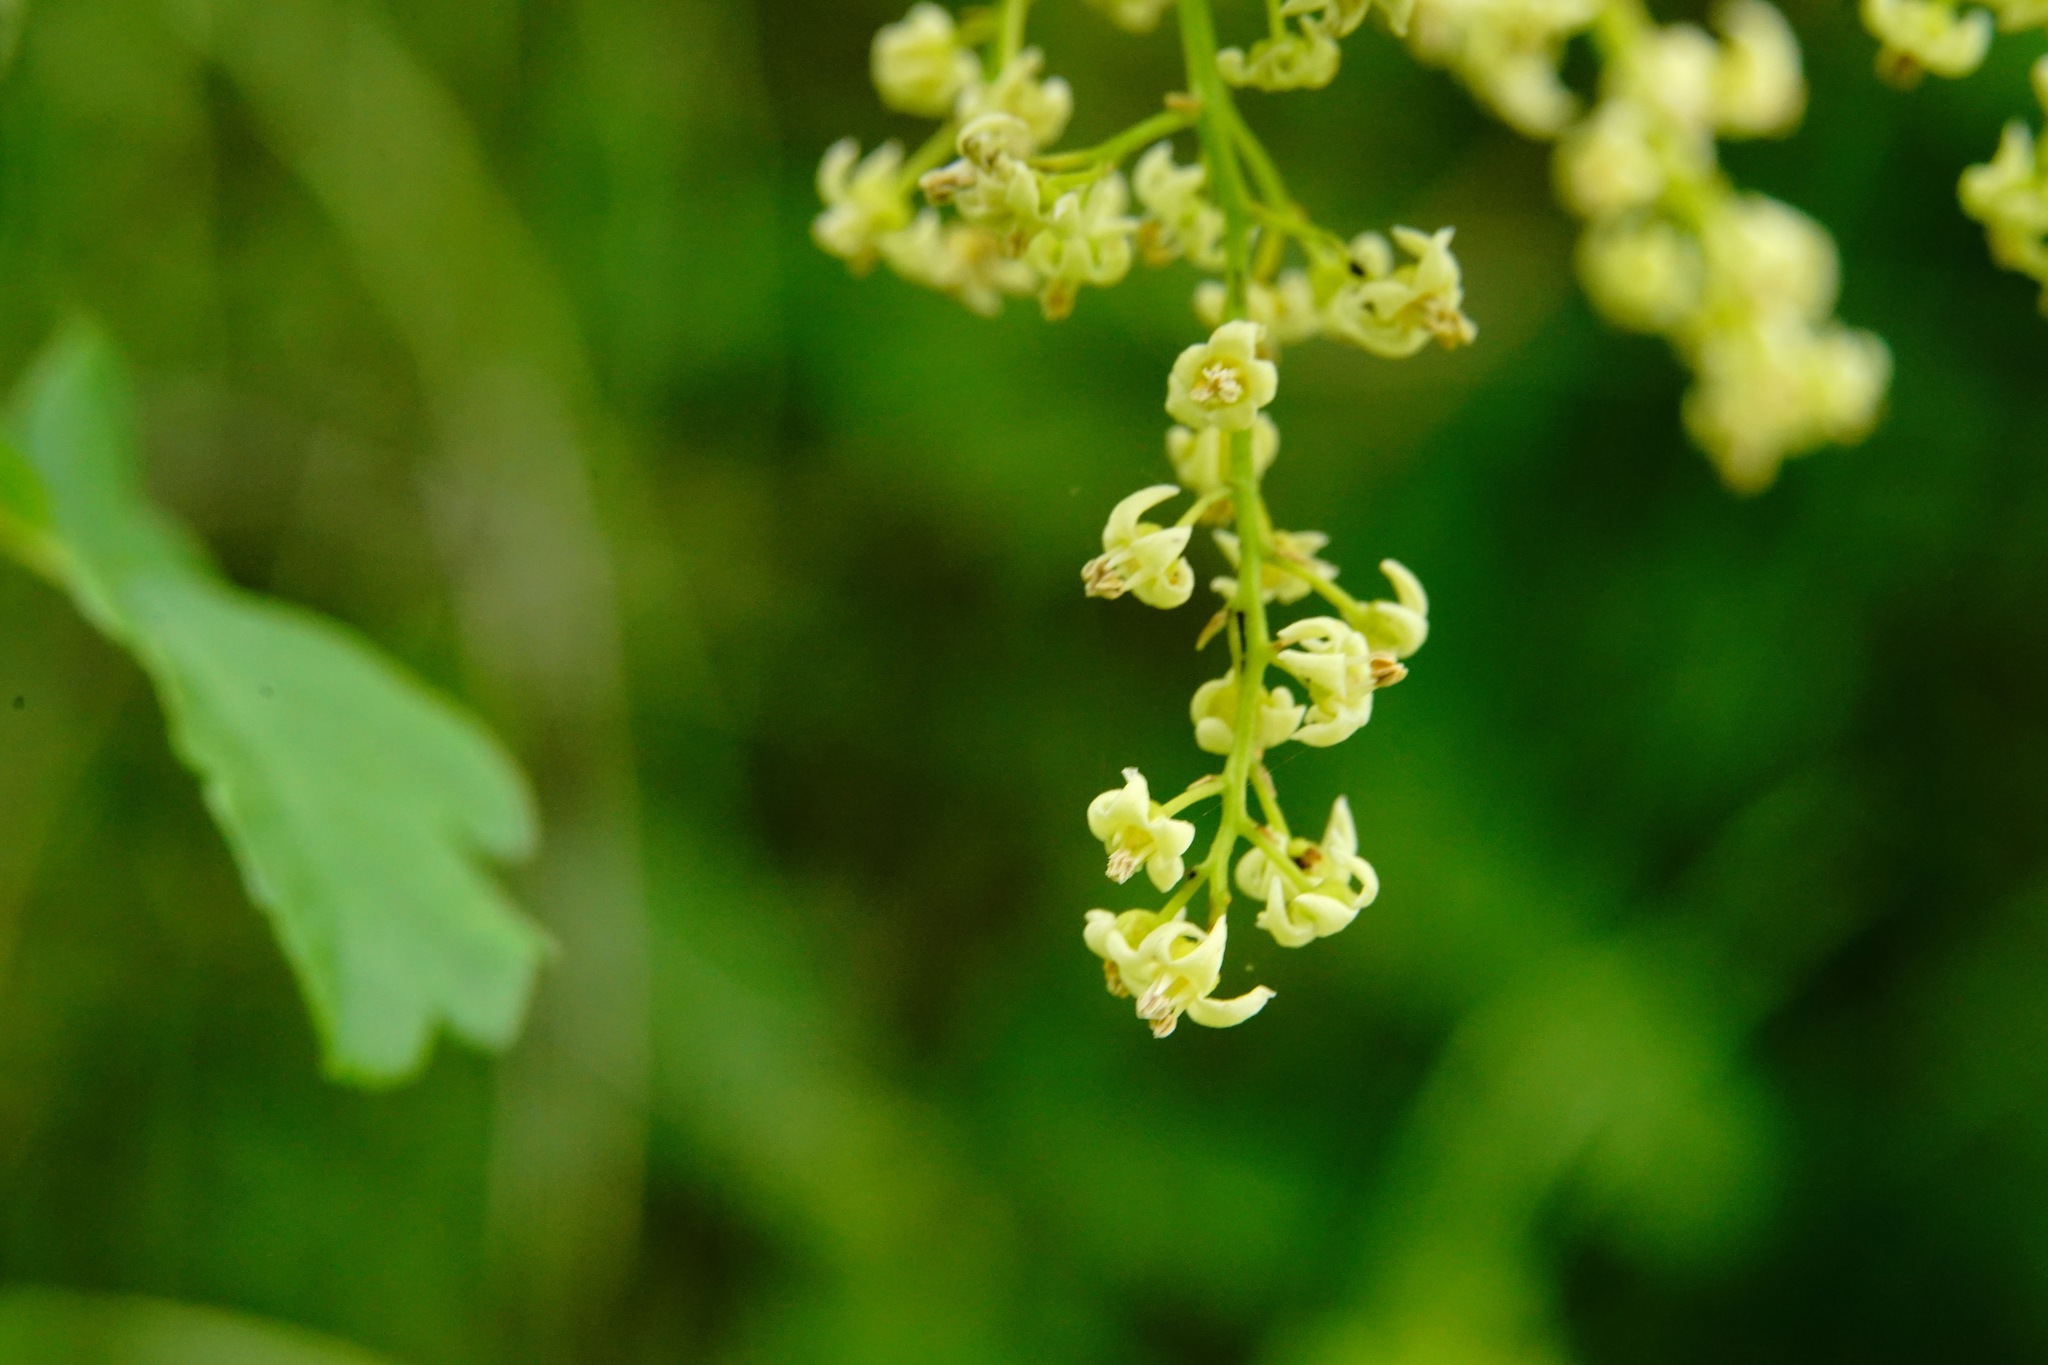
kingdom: Plantae
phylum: Tracheophyta
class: Magnoliopsida
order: Sapindales
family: Anacardiaceae
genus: Toxicodendron
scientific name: Toxicodendron diversilobum
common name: Pacific poison-oak
